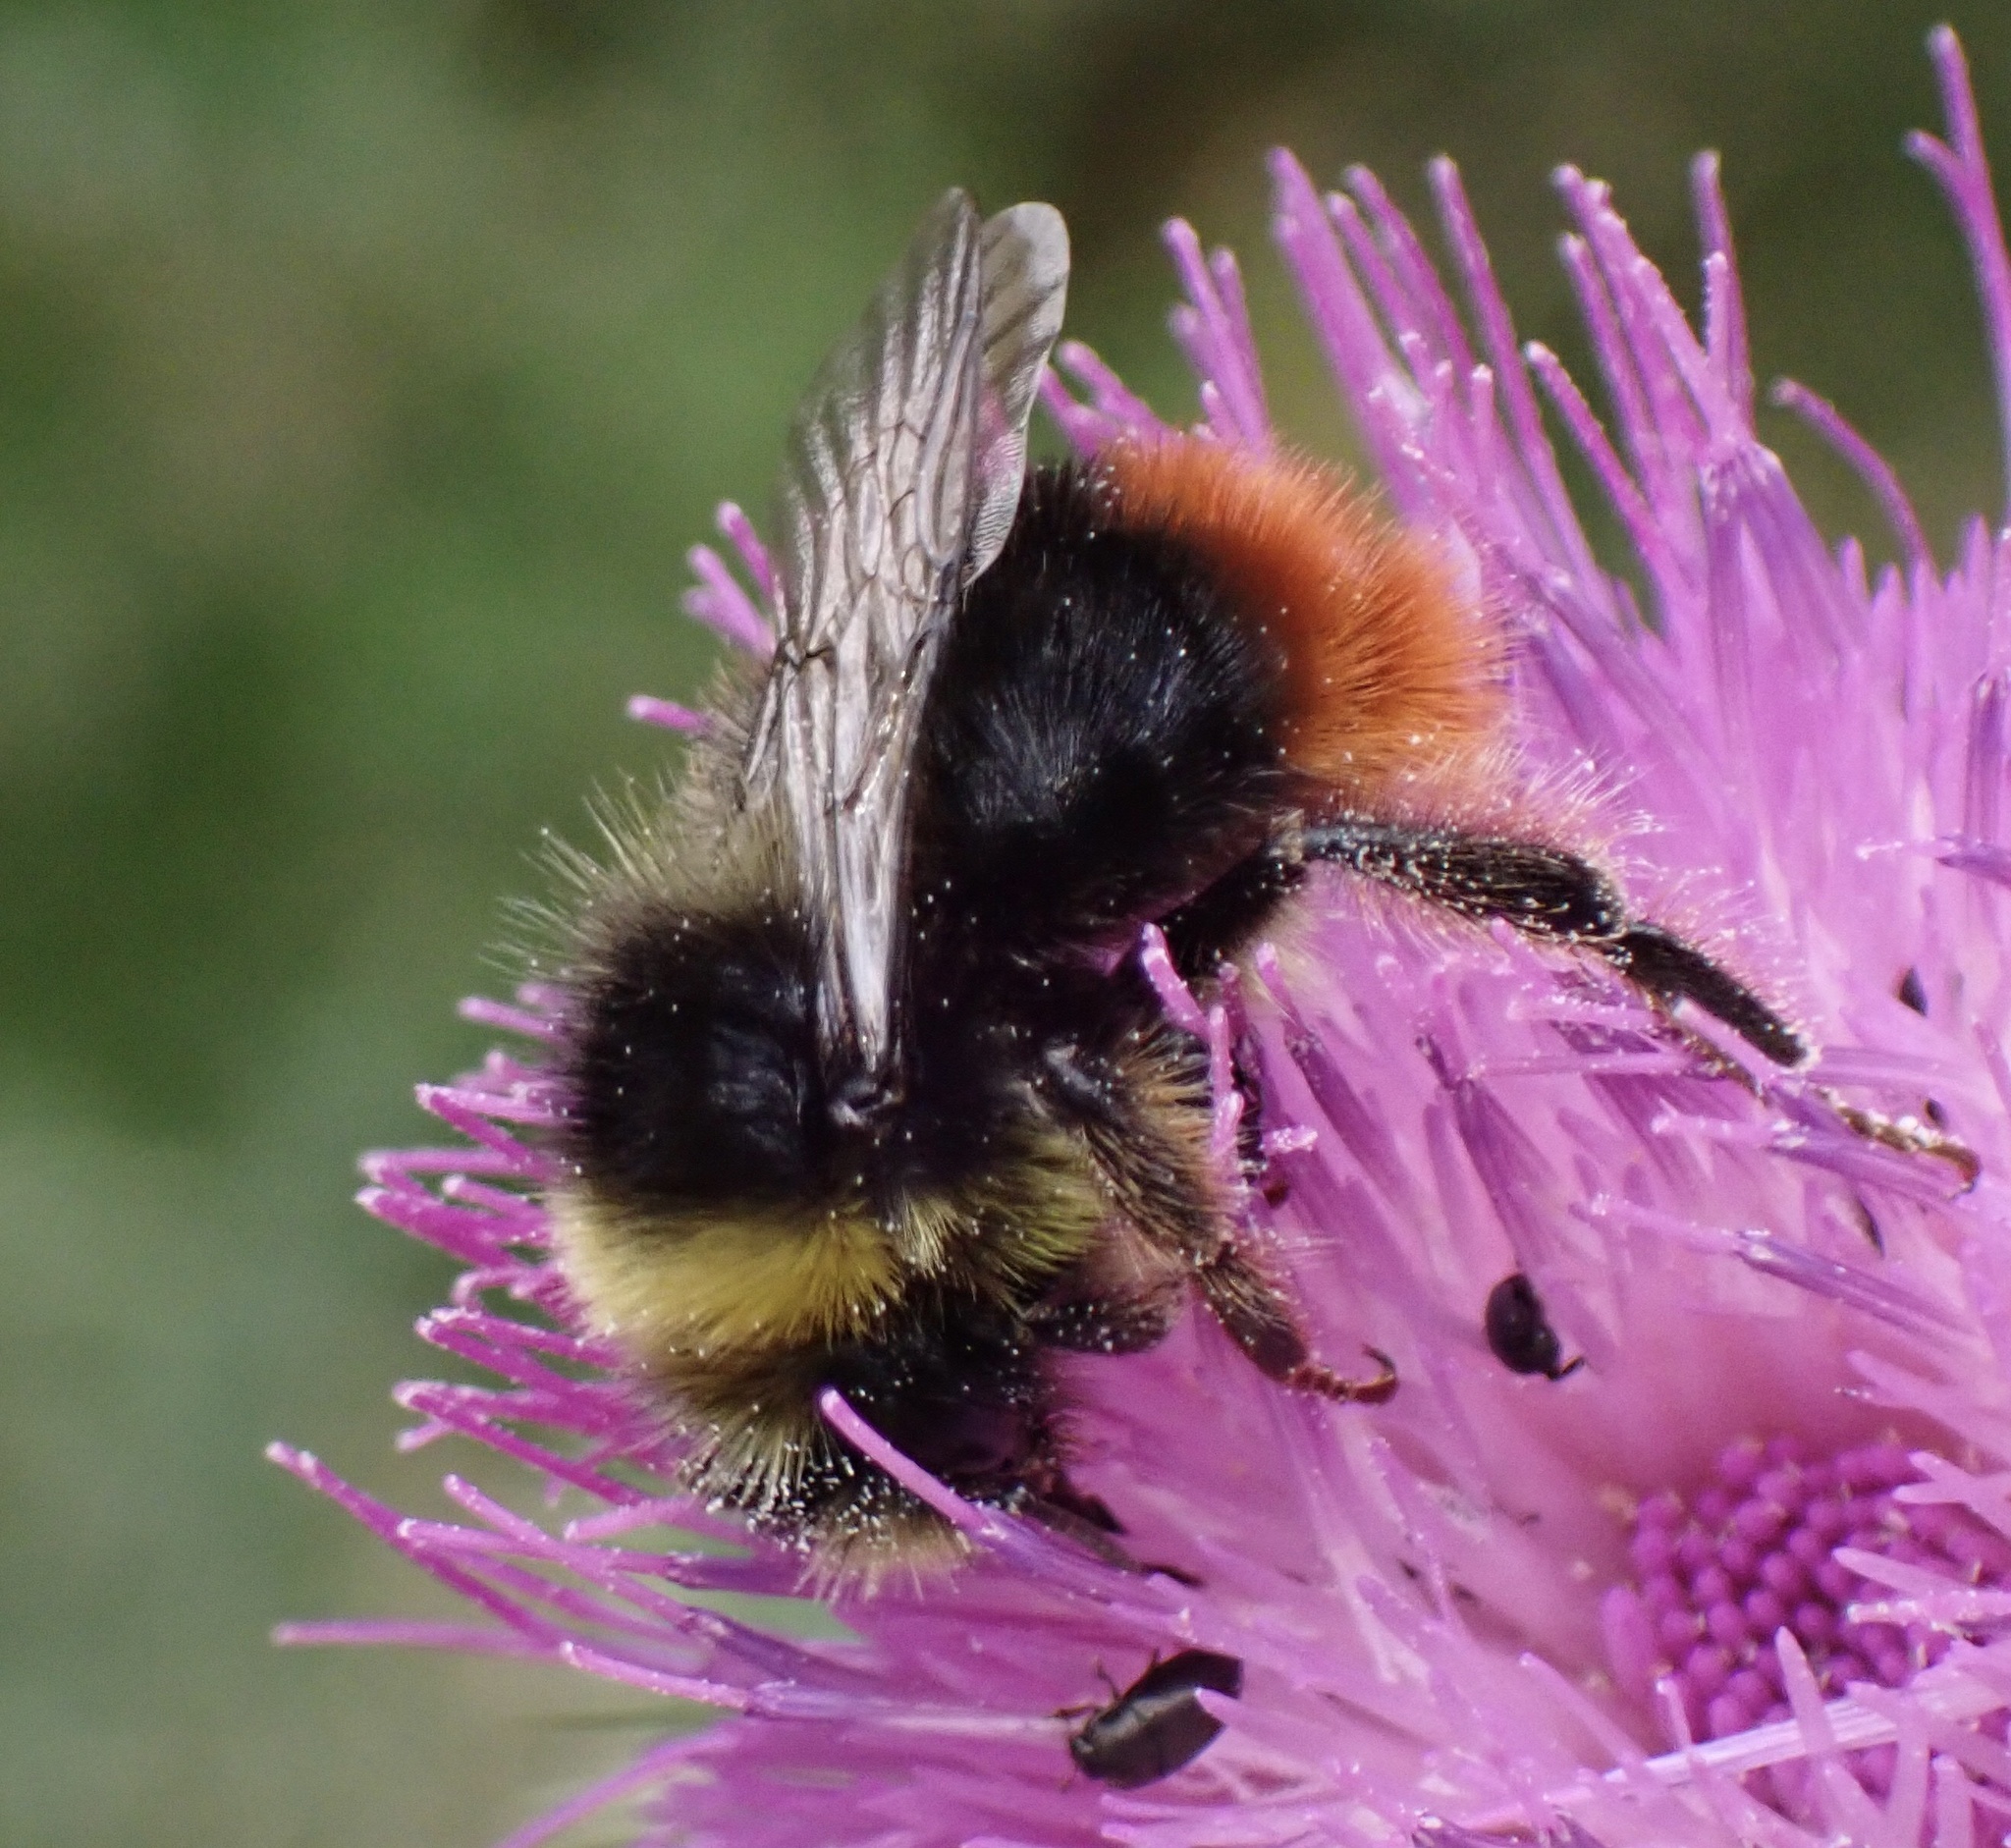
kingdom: Animalia
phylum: Arthropoda
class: Insecta
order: Hymenoptera
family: Apidae
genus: Bombus
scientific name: Bombus lapidarius
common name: Large red-tailed humble-bee
